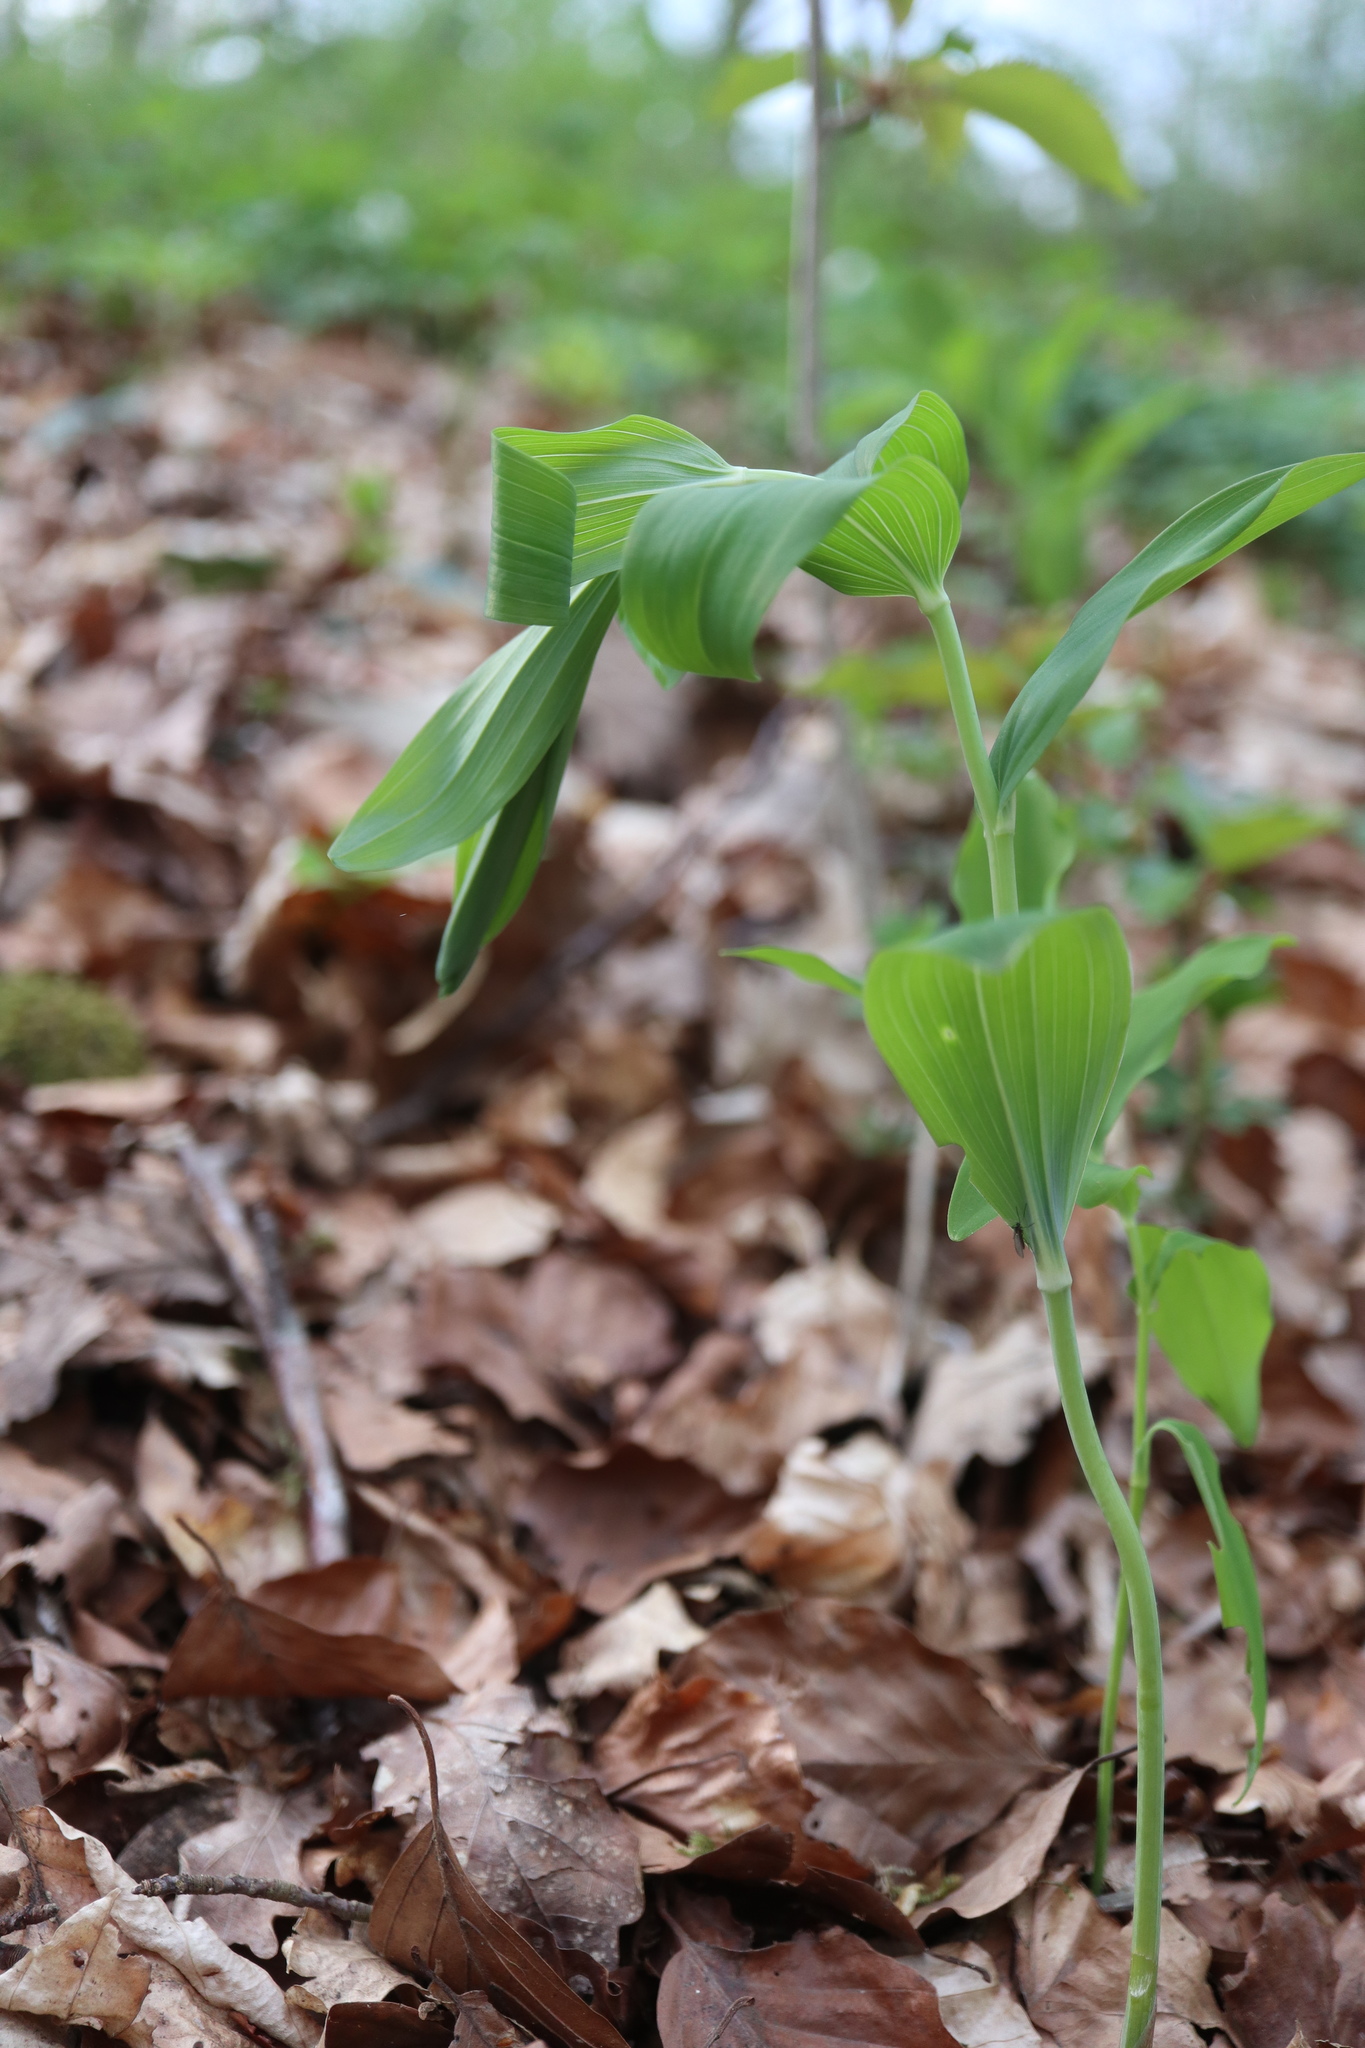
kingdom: Plantae
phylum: Tracheophyta
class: Liliopsida
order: Asparagales
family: Asparagaceae
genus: Polygonatum
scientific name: Polygonatum multiflorum
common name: Solomon's-seal
